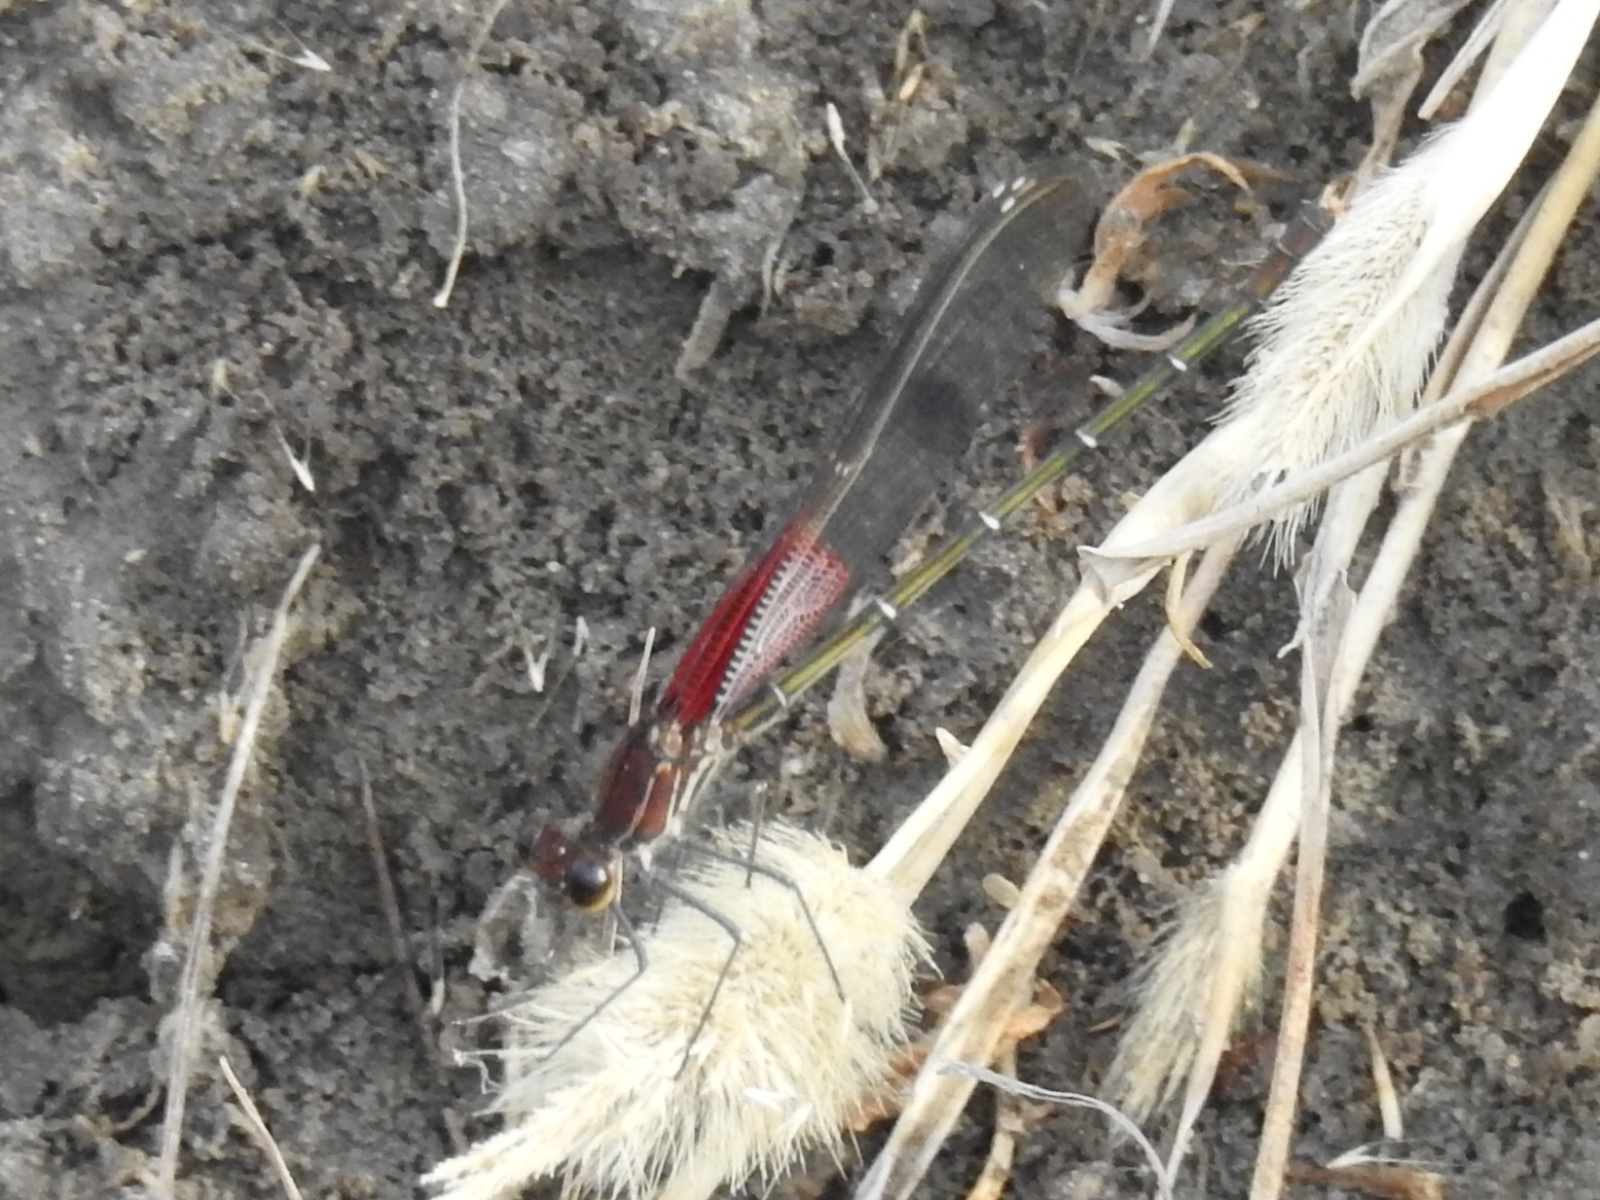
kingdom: Animalia
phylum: Arthropoda
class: Insecta
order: Odonata
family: Calopterygidae
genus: Hetaerina
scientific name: Hetaerina americana
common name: American rubyspot
